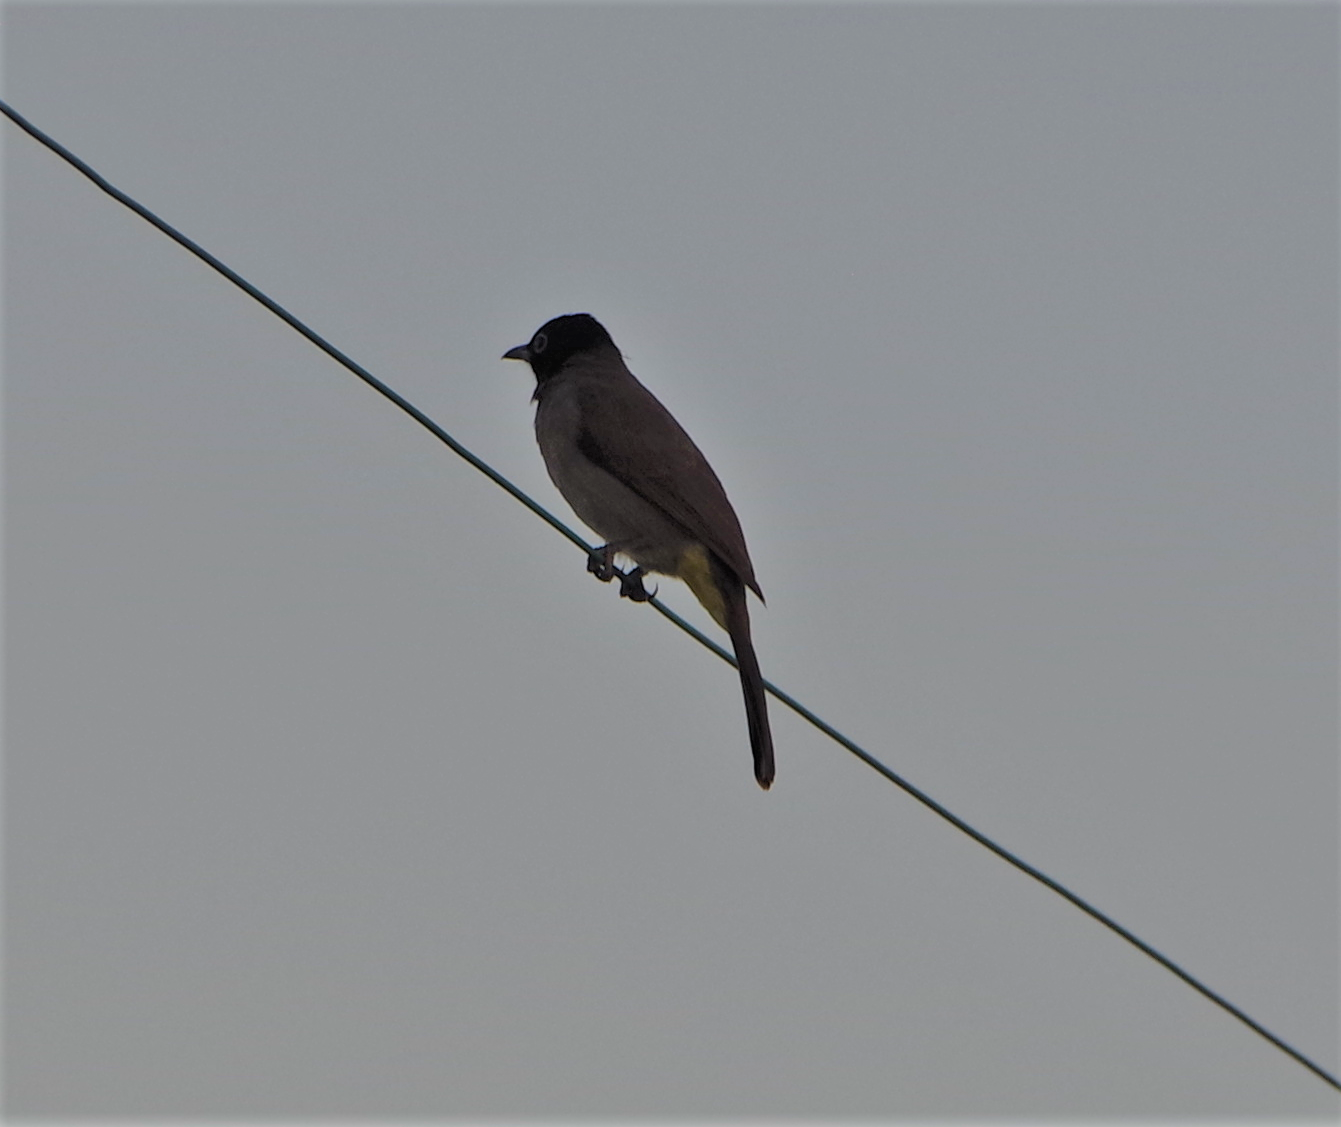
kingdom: Animalia
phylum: Chordata
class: Aves
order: Passeriformes
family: Pycnonotidae
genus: Pycnonotus
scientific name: Pycnonotus xanthopygos
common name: White-spectacled bulbul
